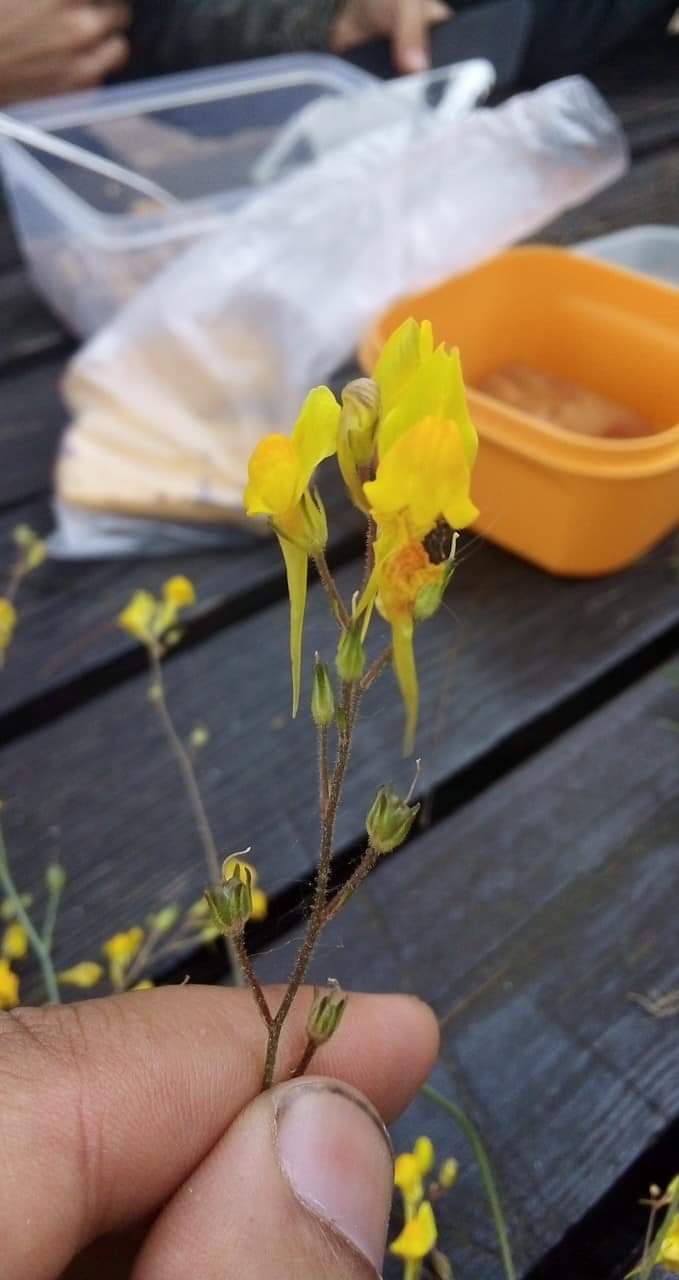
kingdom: Plantae
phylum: Tracheophyta
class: Magnoliopsida
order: Lamiales
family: Plantaginaceae
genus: Linaria
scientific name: Linaria spartea
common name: Ballast toadflax
